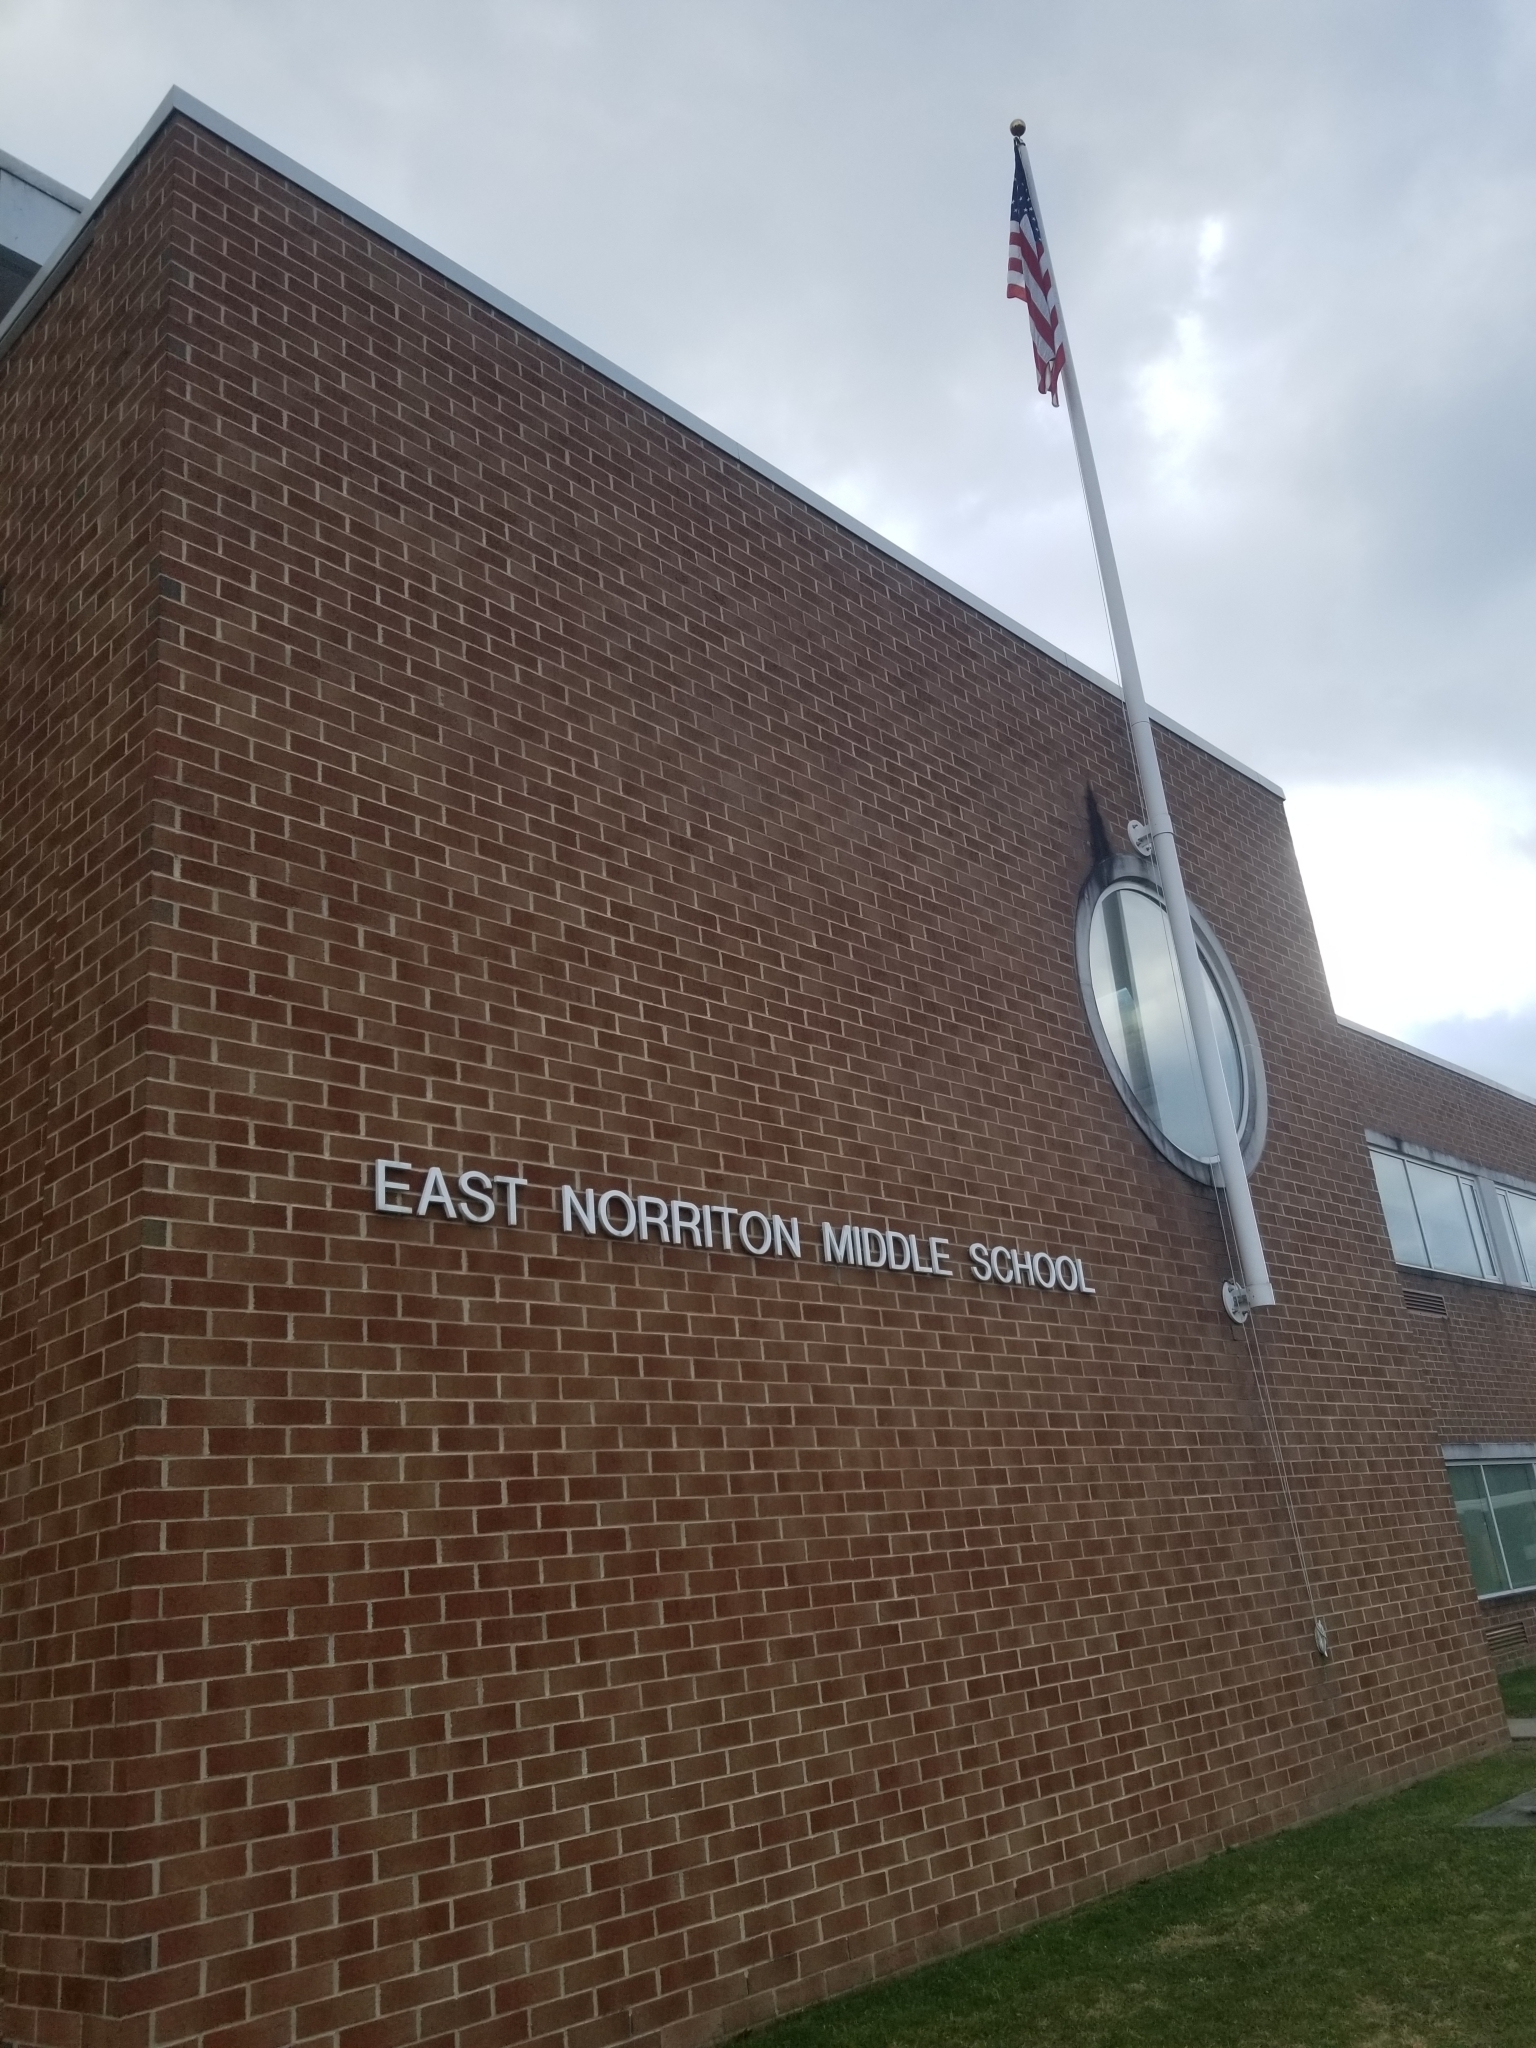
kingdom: Animalia
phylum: Chordata
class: Aves
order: Anseriformes
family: Anatidae
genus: Anser
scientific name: Anser caerulescens
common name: Snow goose
